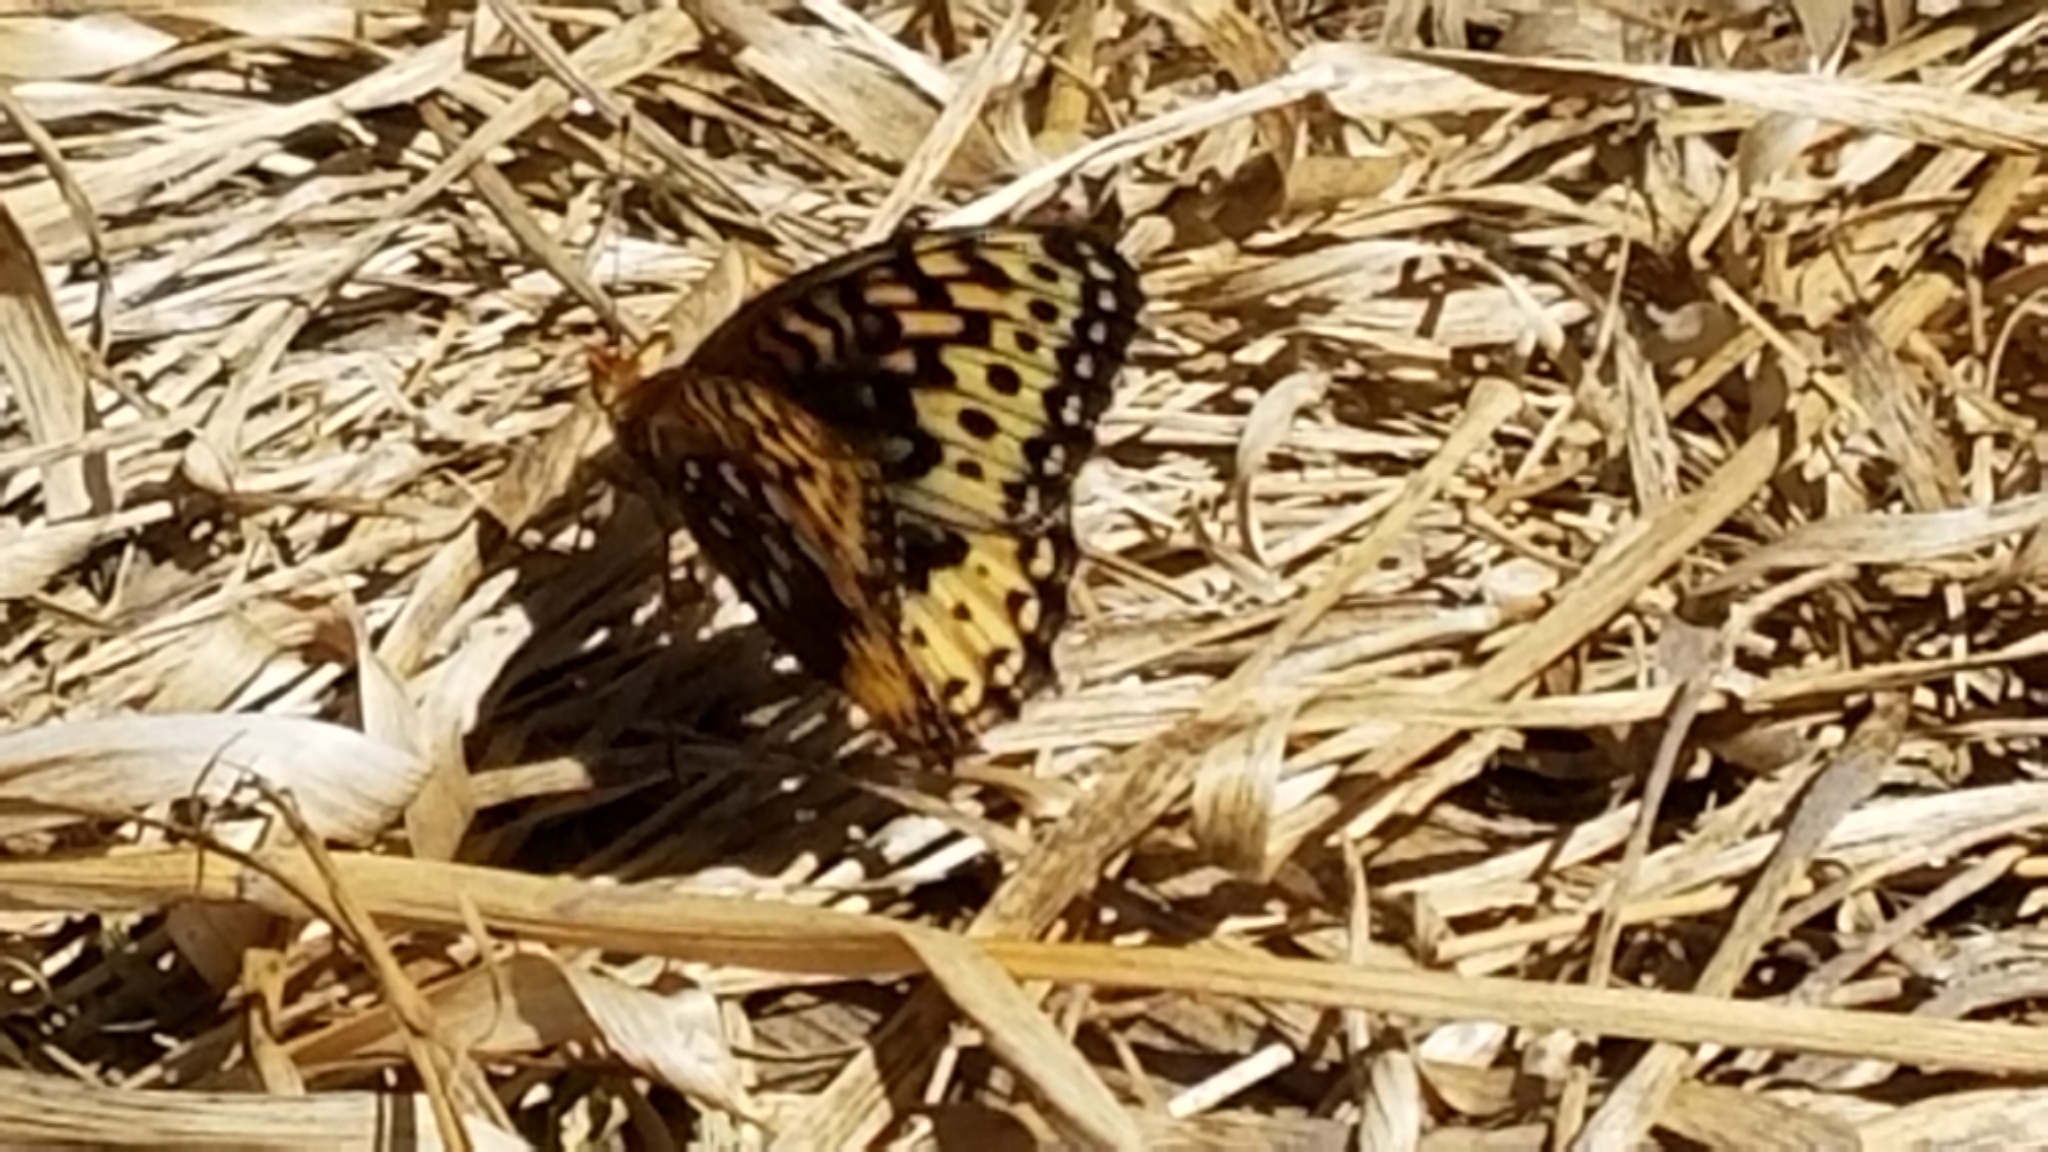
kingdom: Animalia
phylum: Arthropoda
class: Insecta
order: Lepidoptera
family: Nymphalidae
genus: Speyeria
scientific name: Speyeria cybele
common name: Great spangled fritillary
